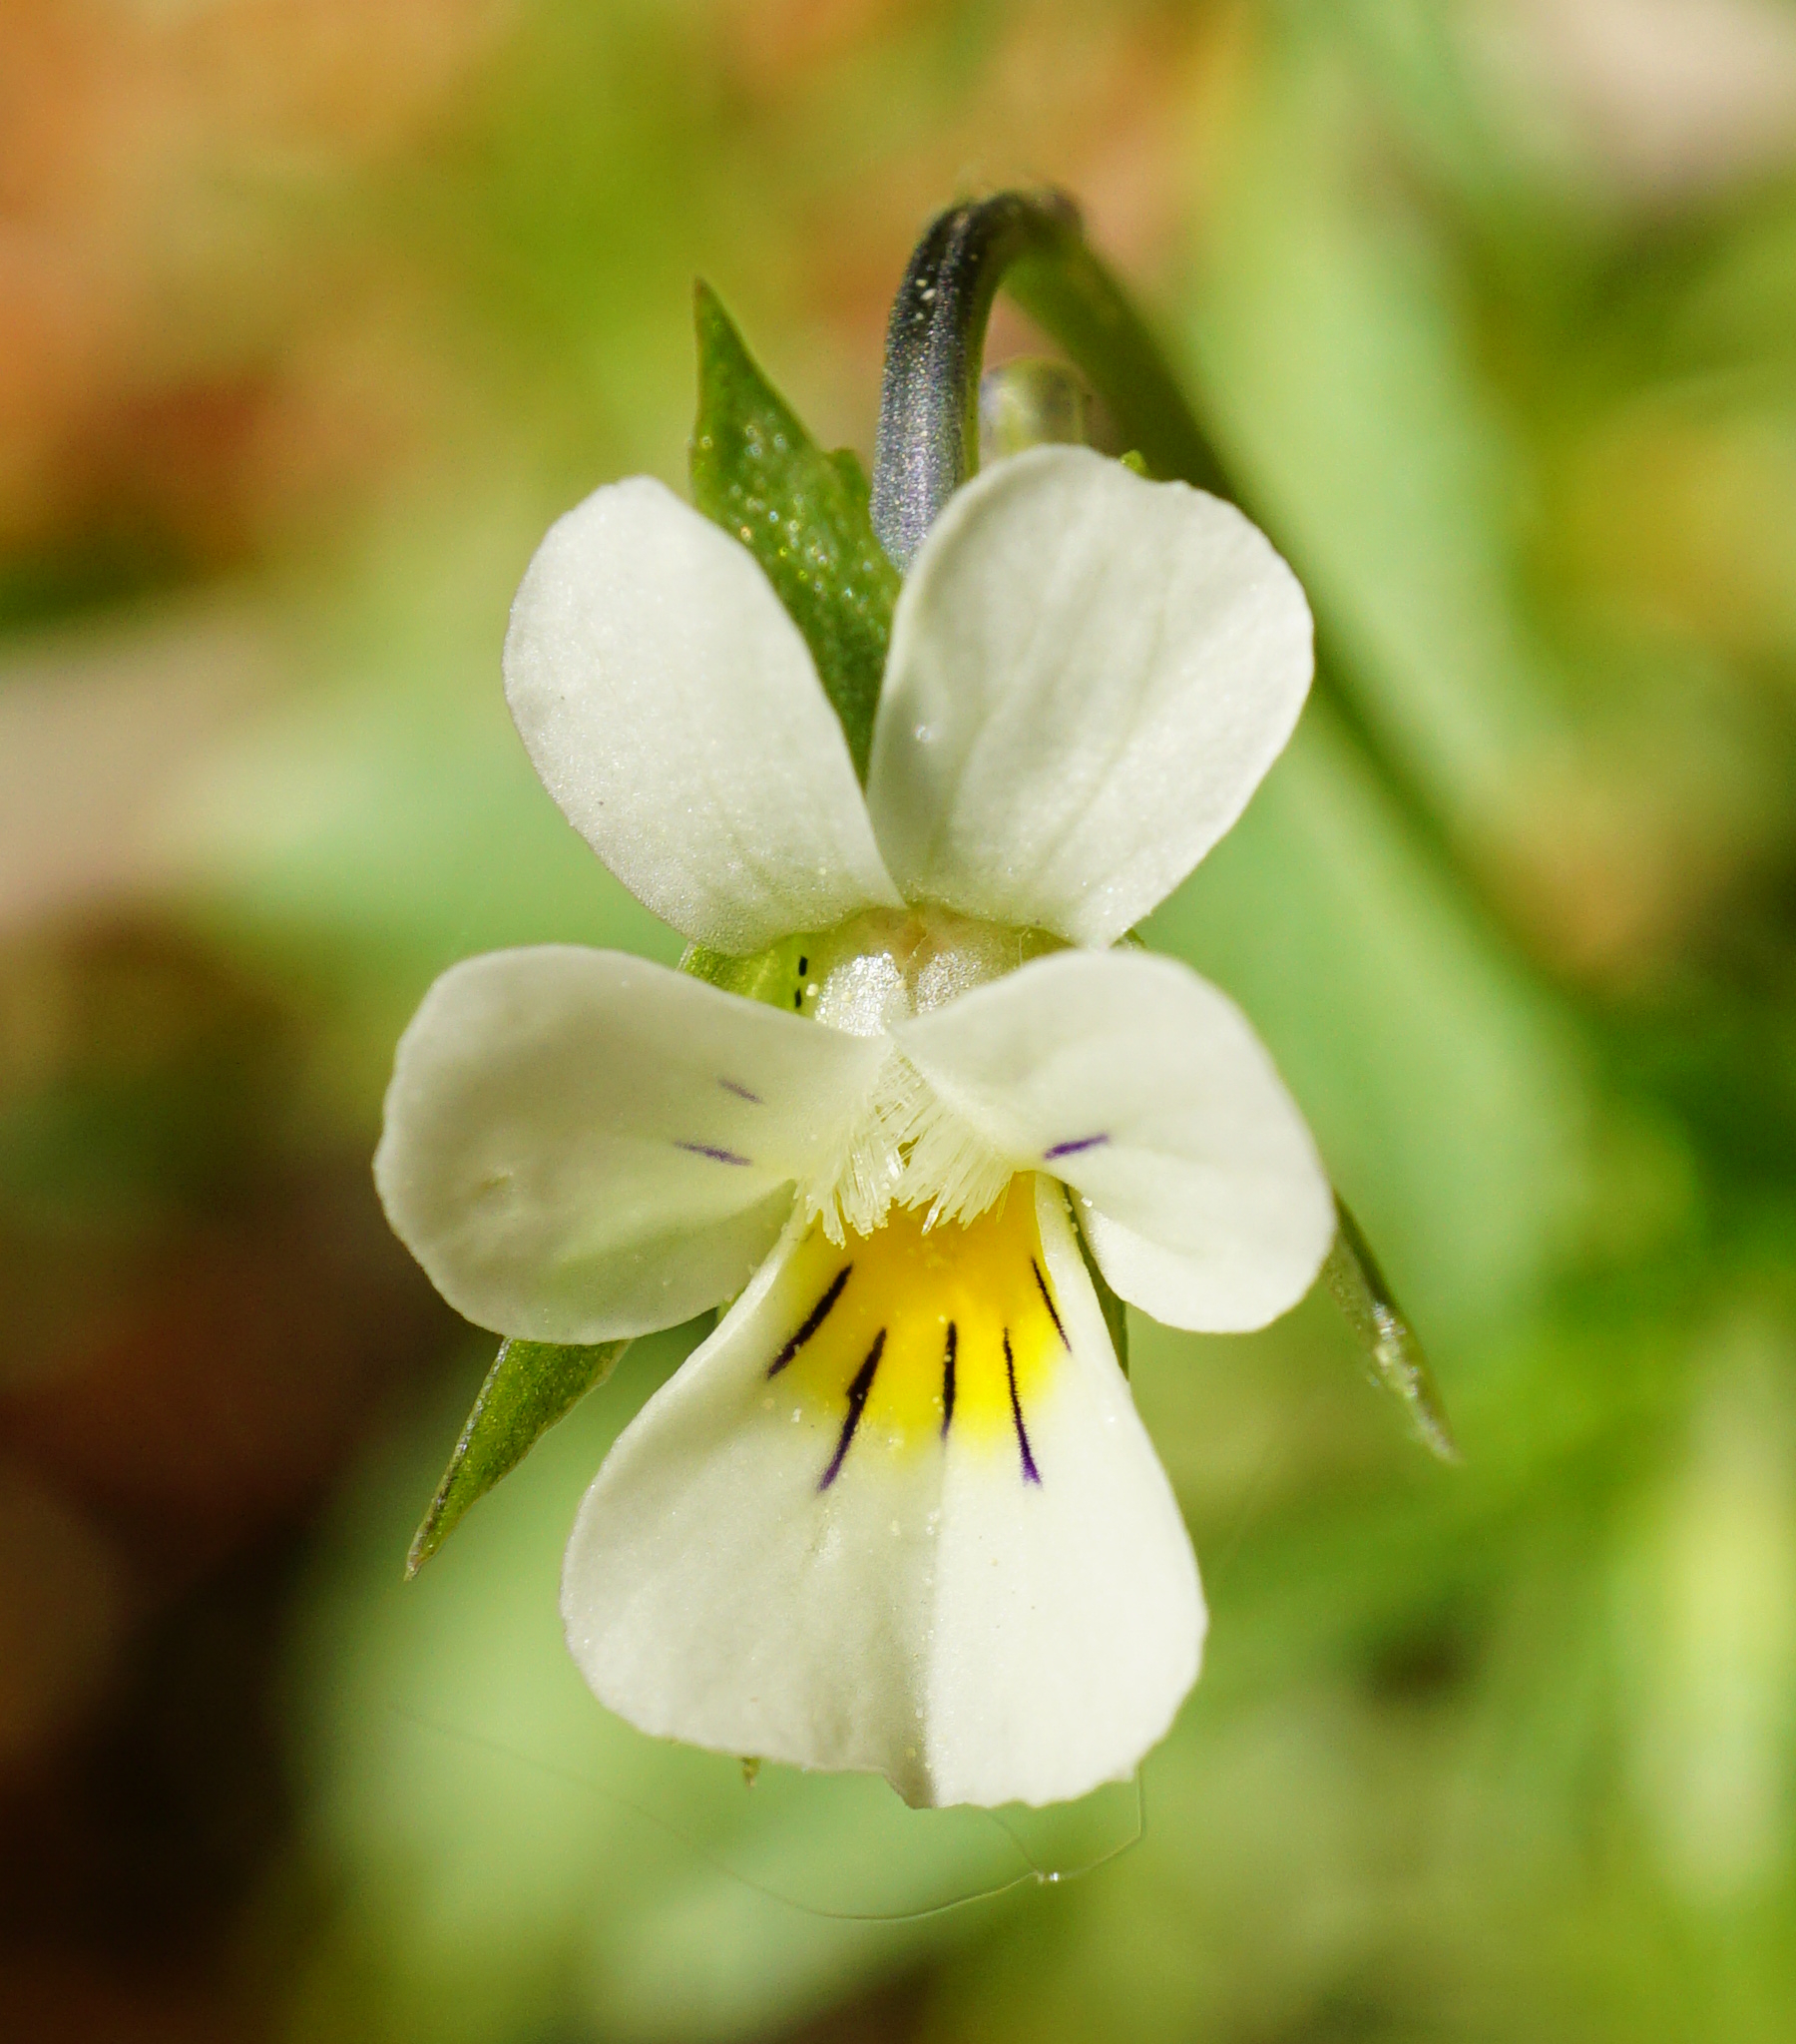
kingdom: Plantae
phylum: Tracheophyta
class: Magnoliopsida
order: Malpighiales
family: Violaceae
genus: Viola
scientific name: Viola arvensis
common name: Field pansy
